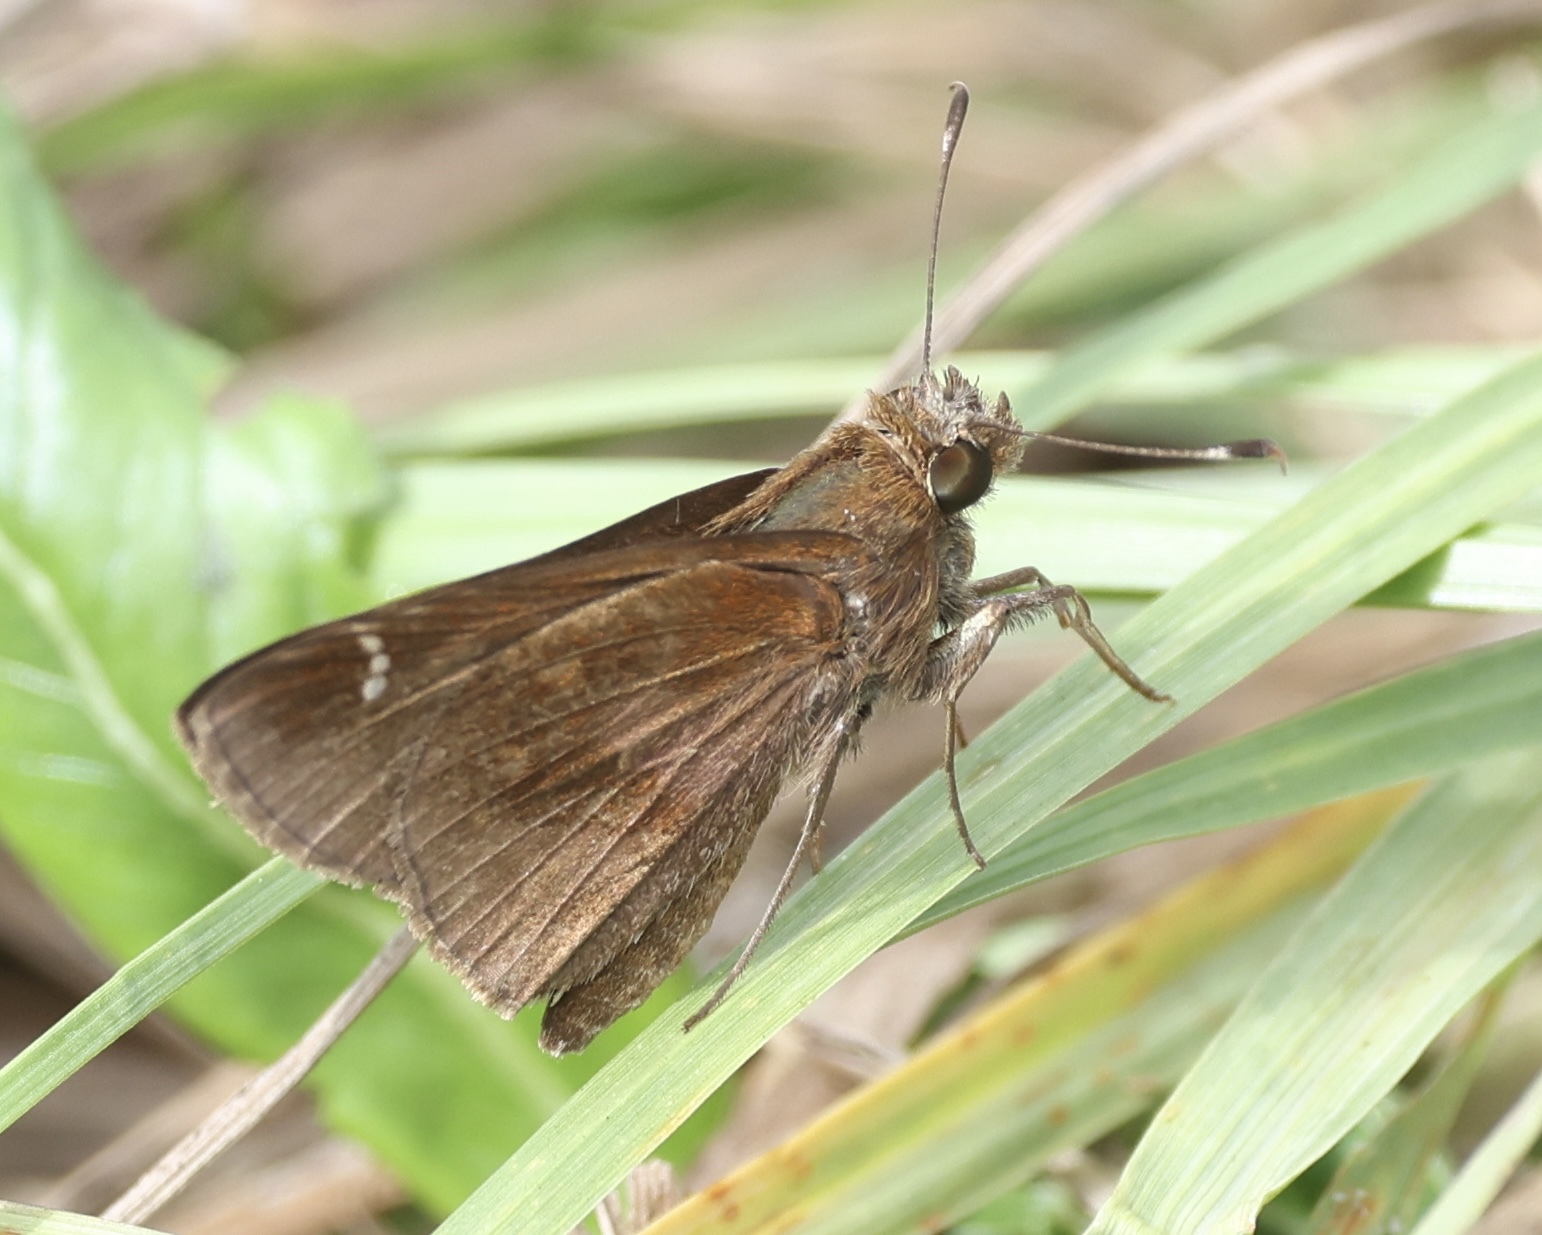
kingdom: Animalia
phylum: Arthropoda
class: Insecta
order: Lepidoptera
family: Hesperiidae
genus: Lerema
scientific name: Lerema accius
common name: Clouded skipper
